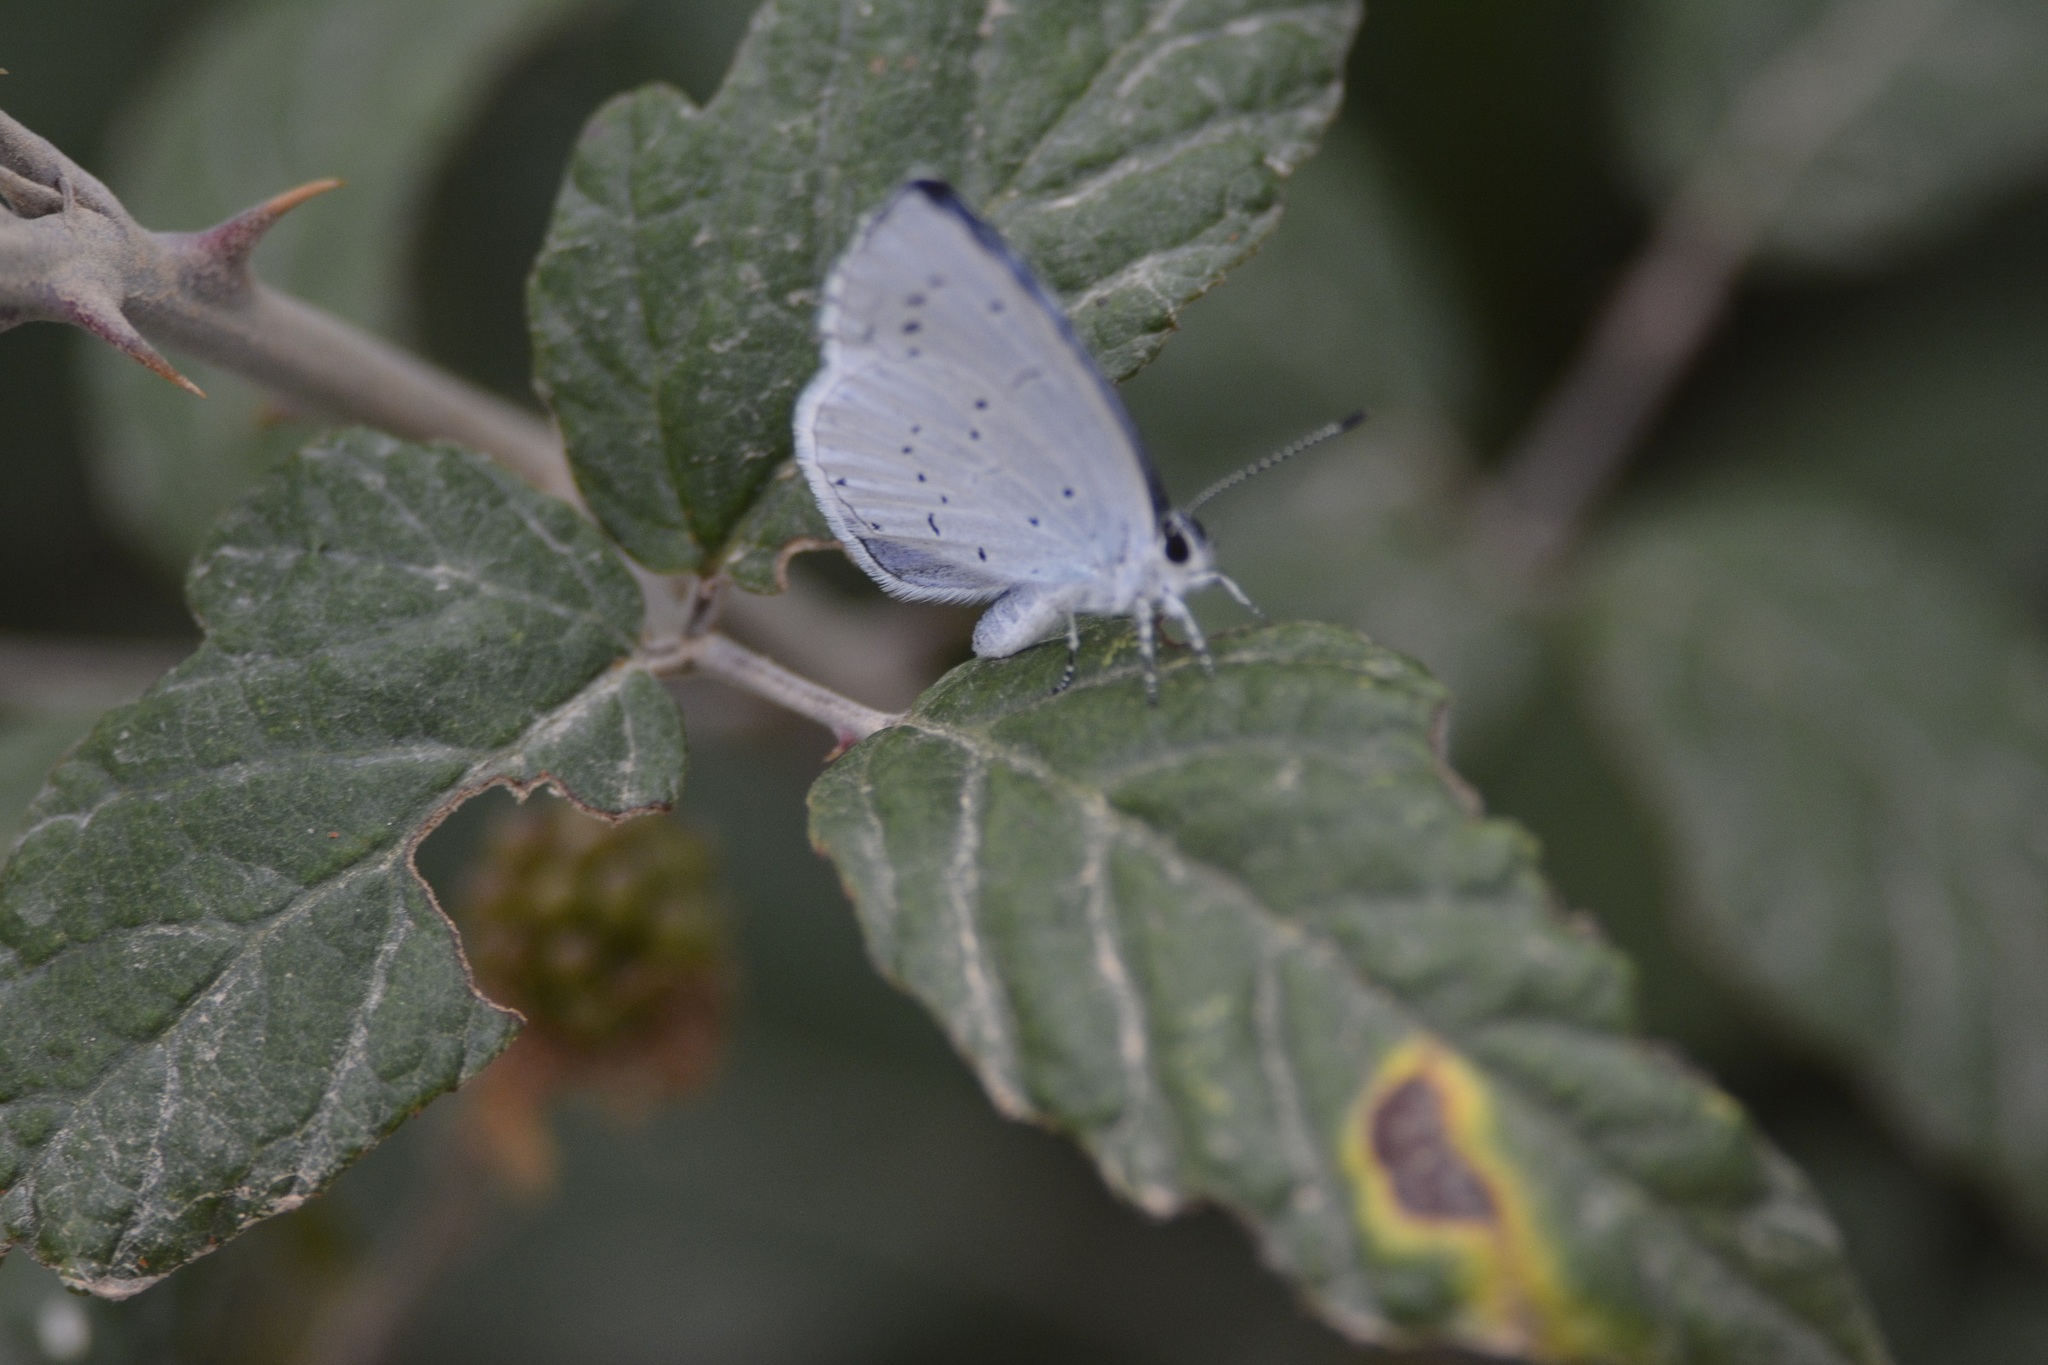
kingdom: Animalia
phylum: Arthropoda
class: Insecta
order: Lepidoptera
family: Lycaenidae
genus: Celastrina
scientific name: Celastrina argiolus
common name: Holly blue
